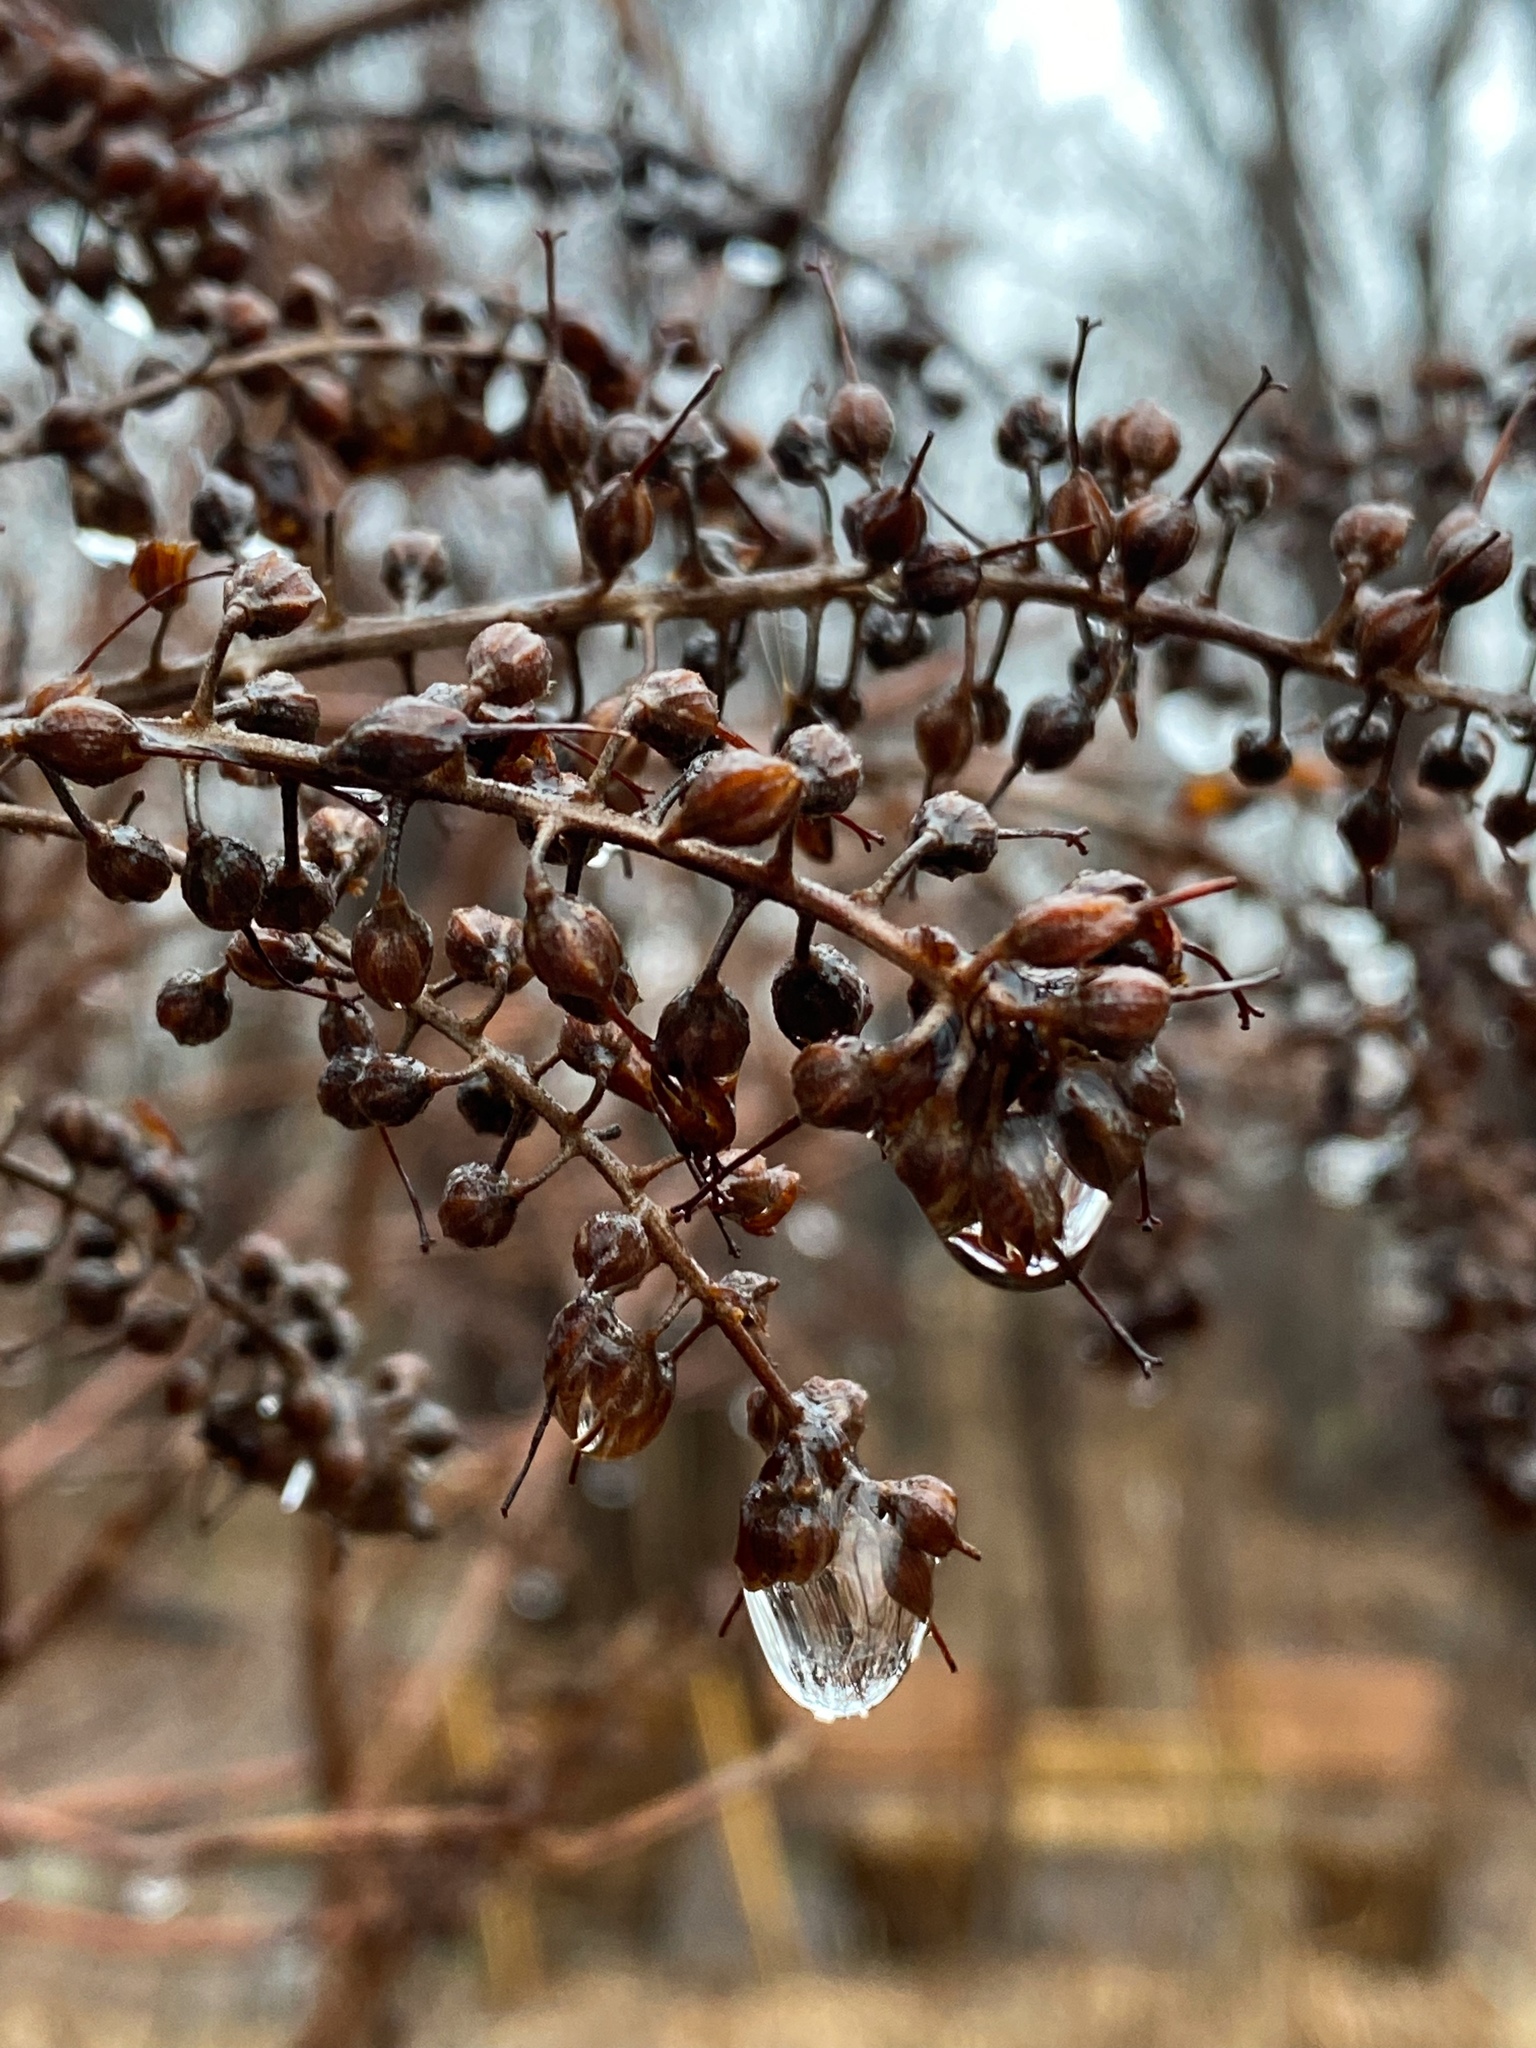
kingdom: Plantae
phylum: Tracheophyta
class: Magnoliopsida
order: Ericales
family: Clethraceae
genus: Clethra
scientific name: Clethra alnifolia
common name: Sweet pepperbush
